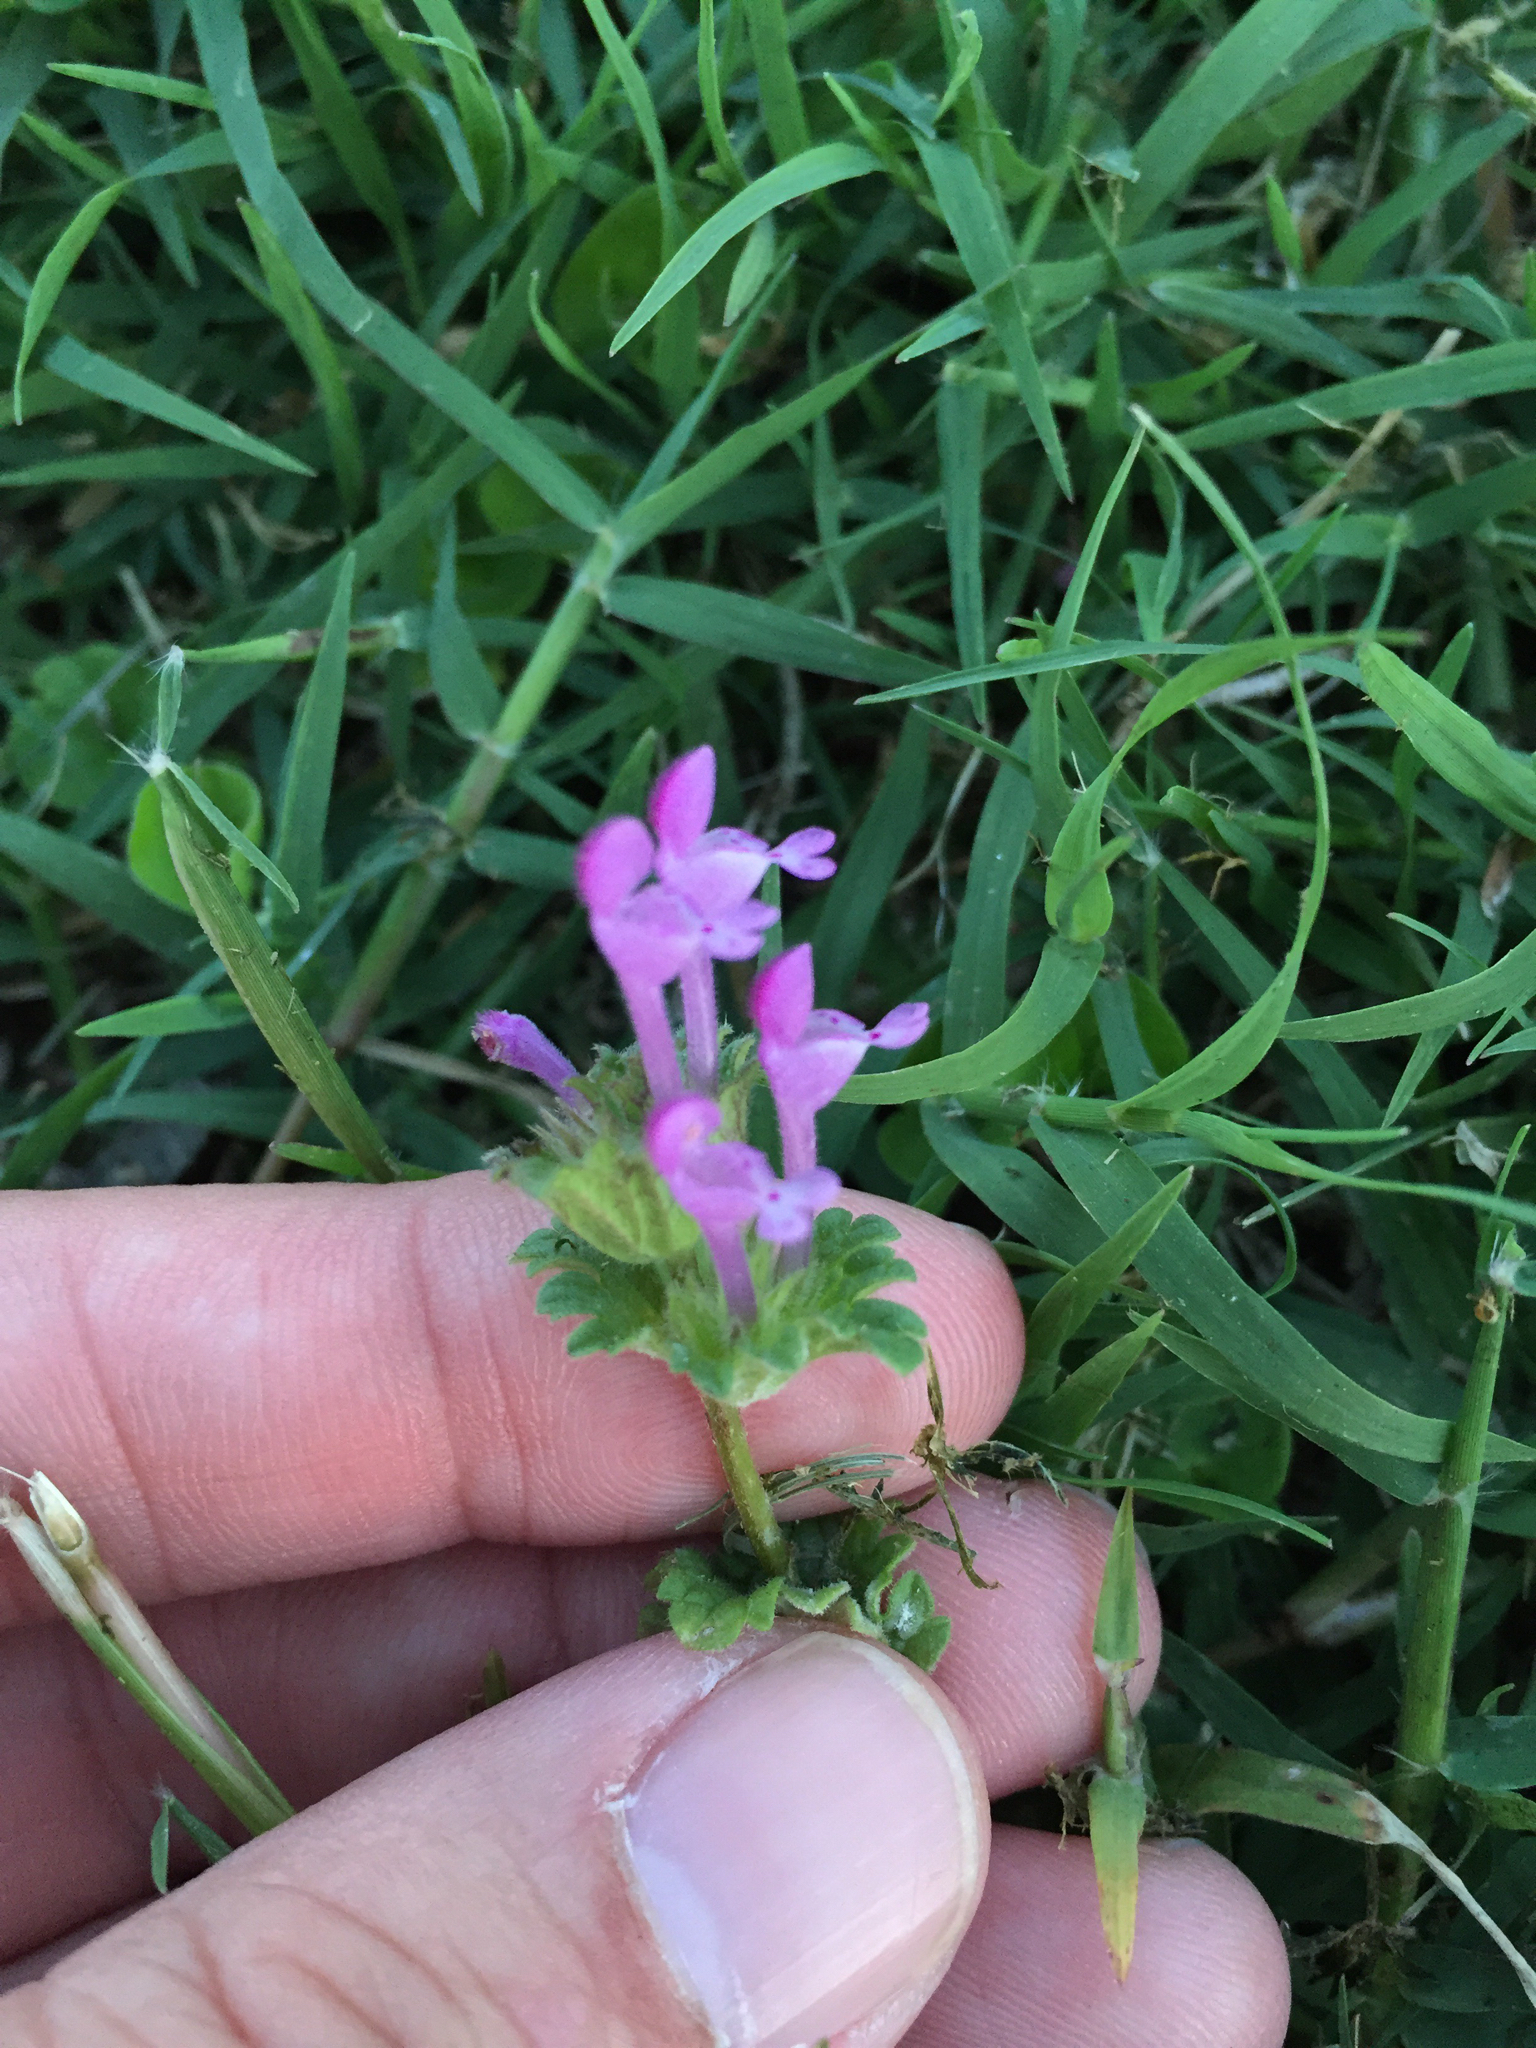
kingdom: Plantae
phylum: Tracheophyta
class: Magnoliopsida
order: Lamiales
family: Lamiaceae
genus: Lamium
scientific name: Lamium amplexicaule
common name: Henbit dead-nettle
